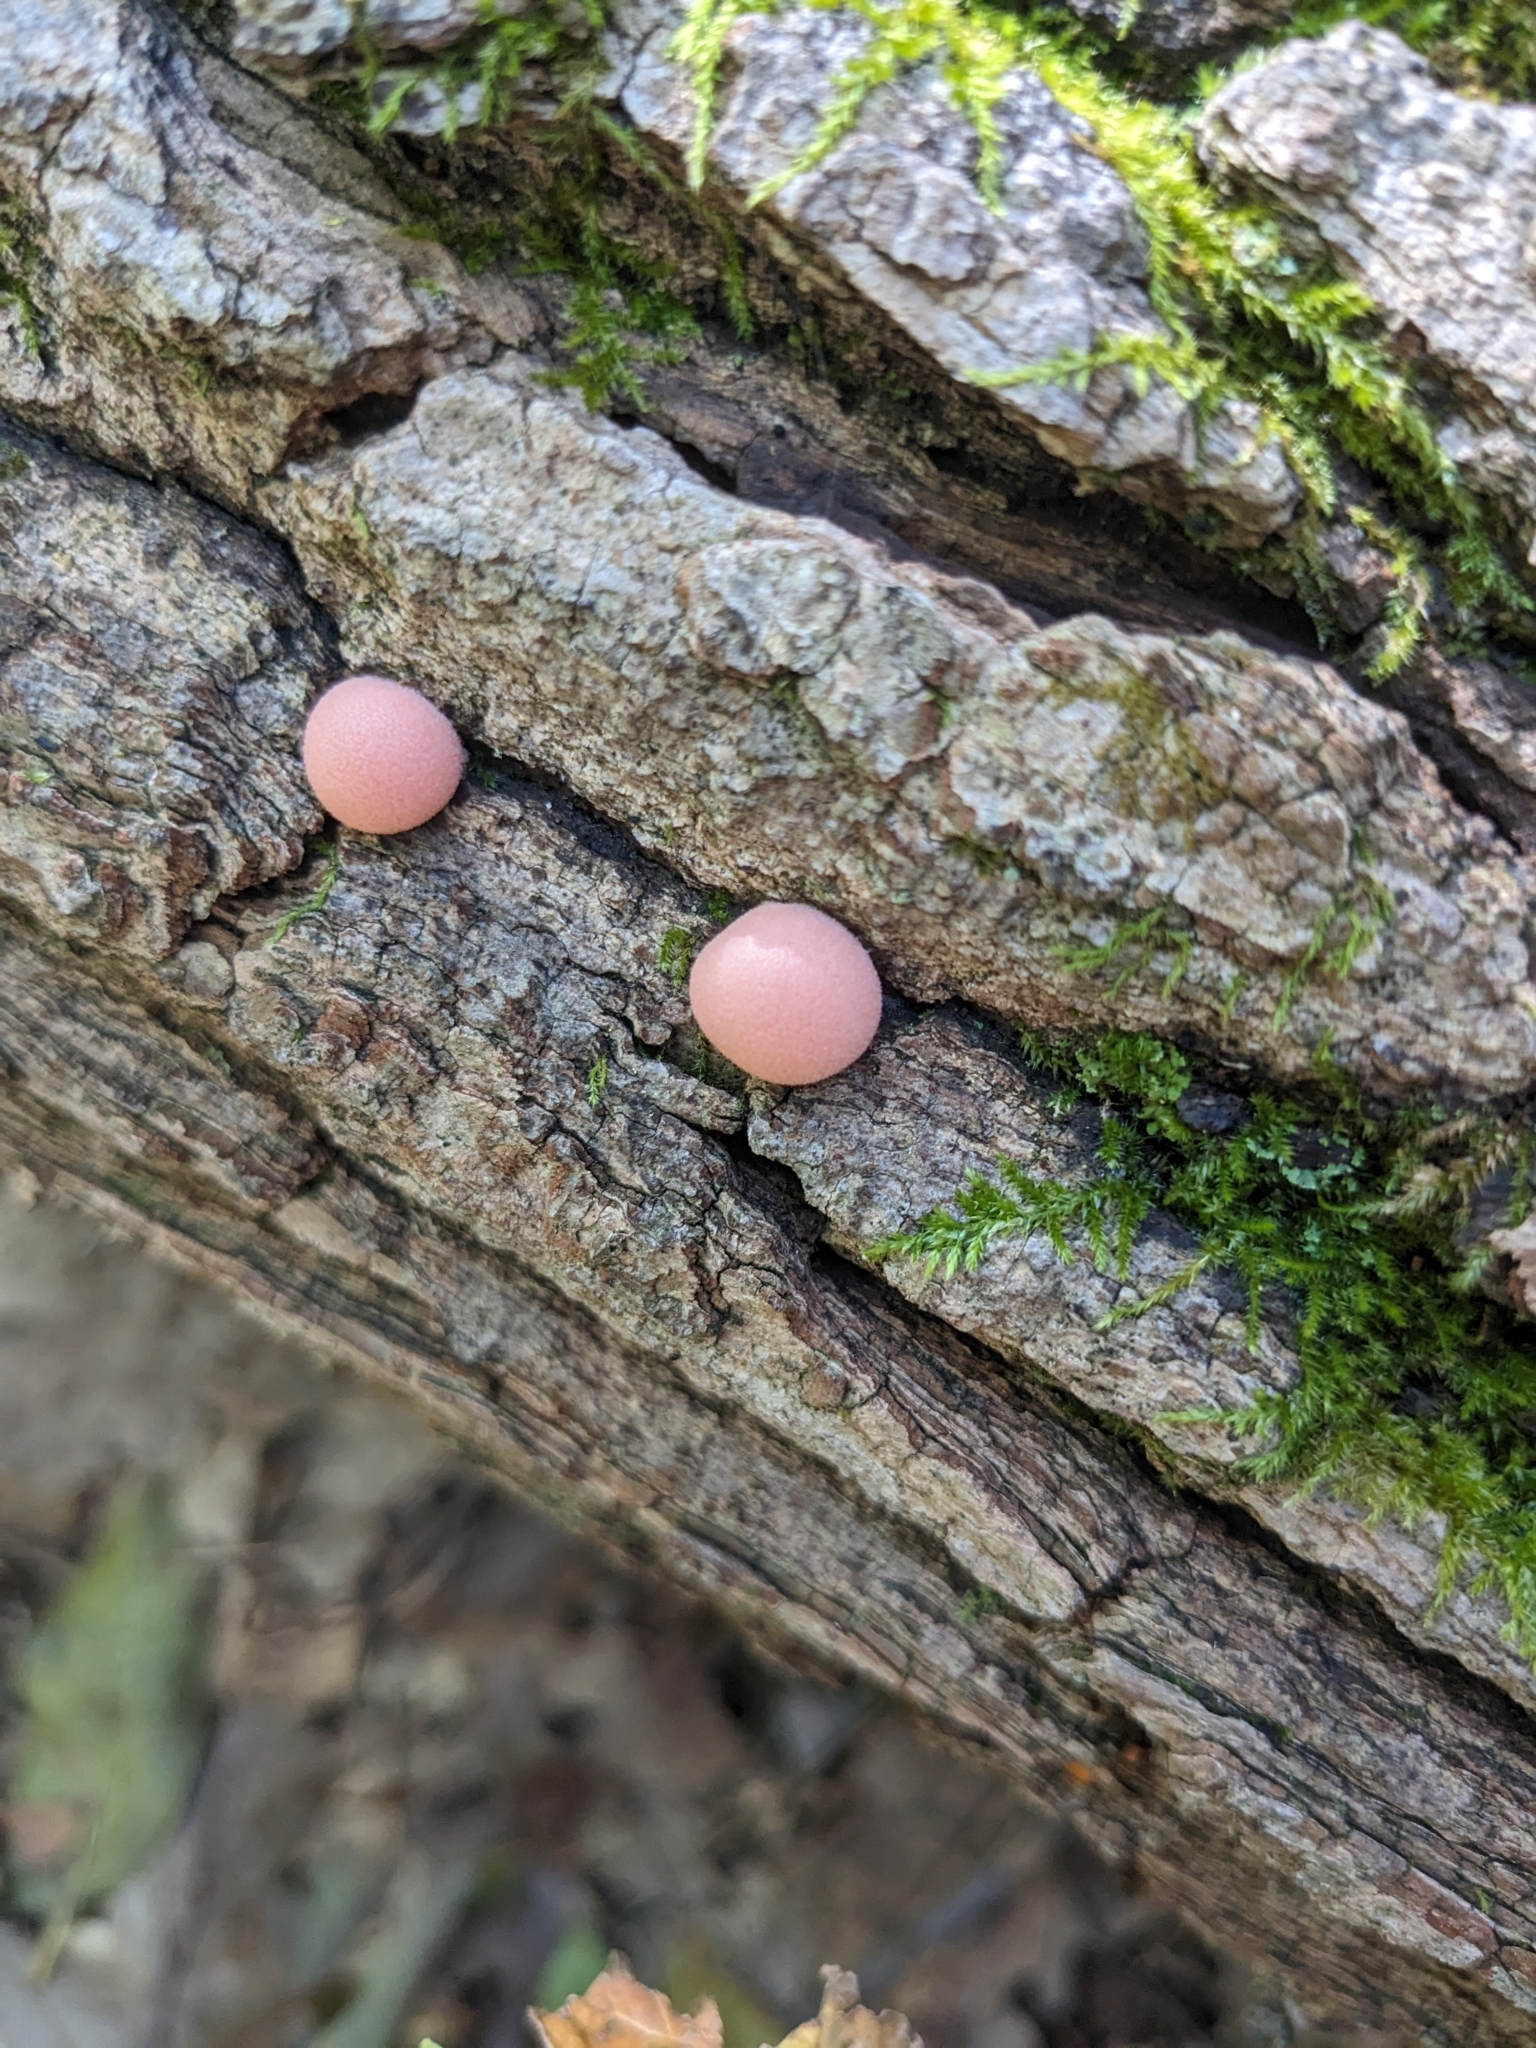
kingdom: Protozoa
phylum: Mycetozoa
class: Myxomycetes
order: Cribrariales
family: Tubiferaceae
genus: Lycogala
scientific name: Lycogala epidendrum
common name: Wolf's milk
